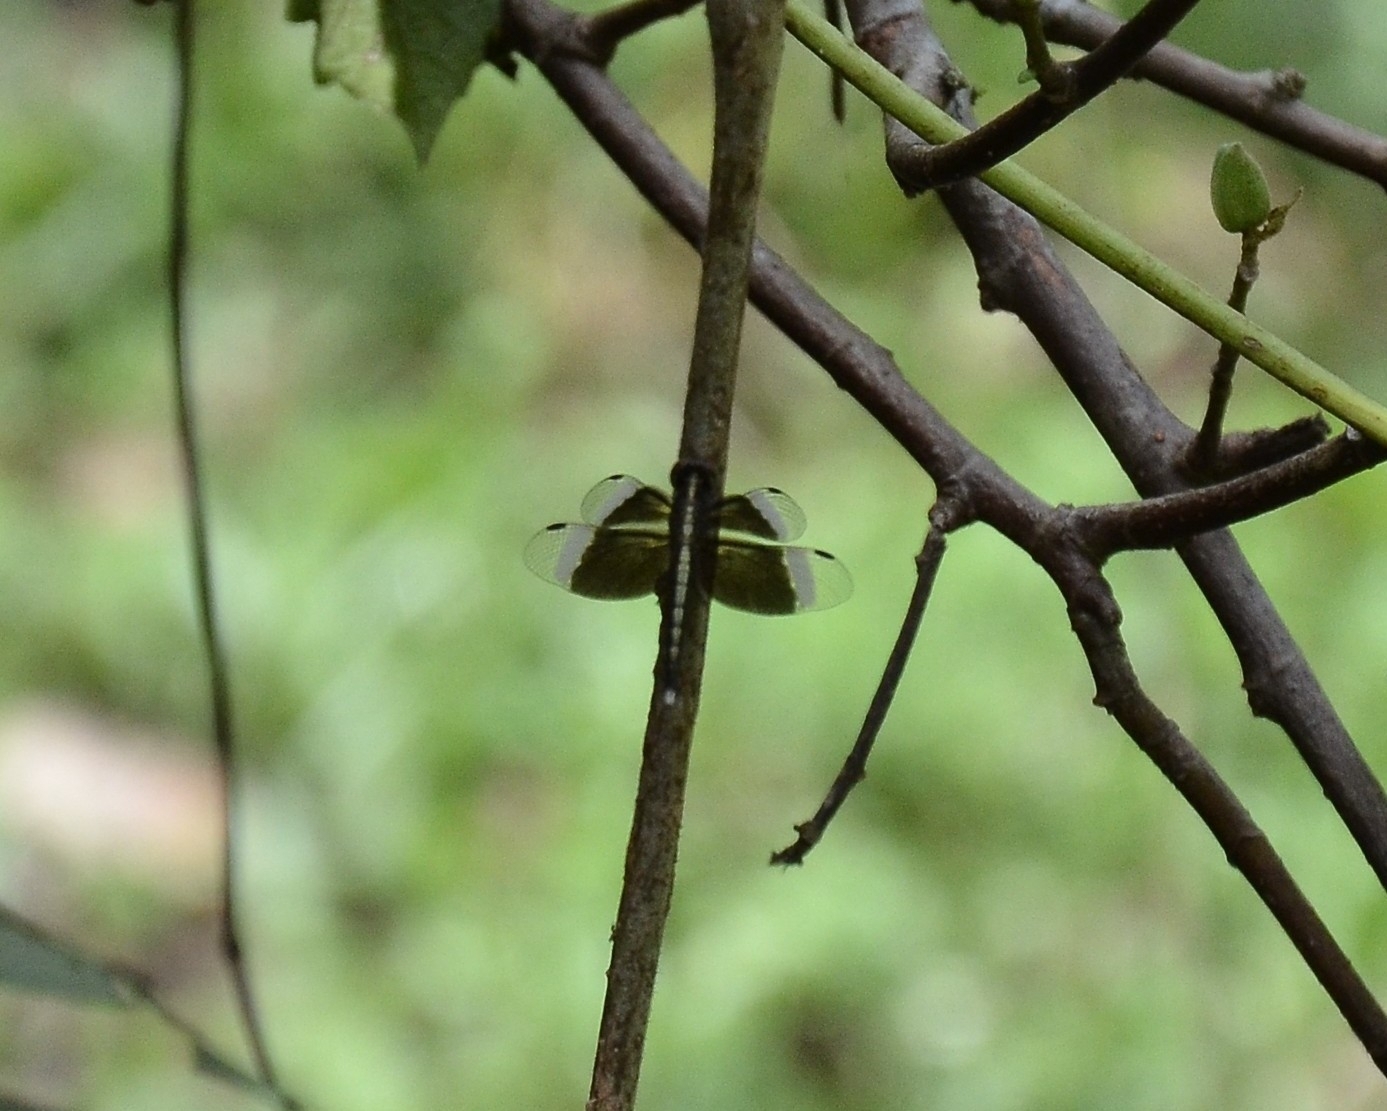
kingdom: Animalia
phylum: Arthropoda
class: Insecta
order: Odonata
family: Libellulidae
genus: Neurothemis
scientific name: Neurothemis tullia
